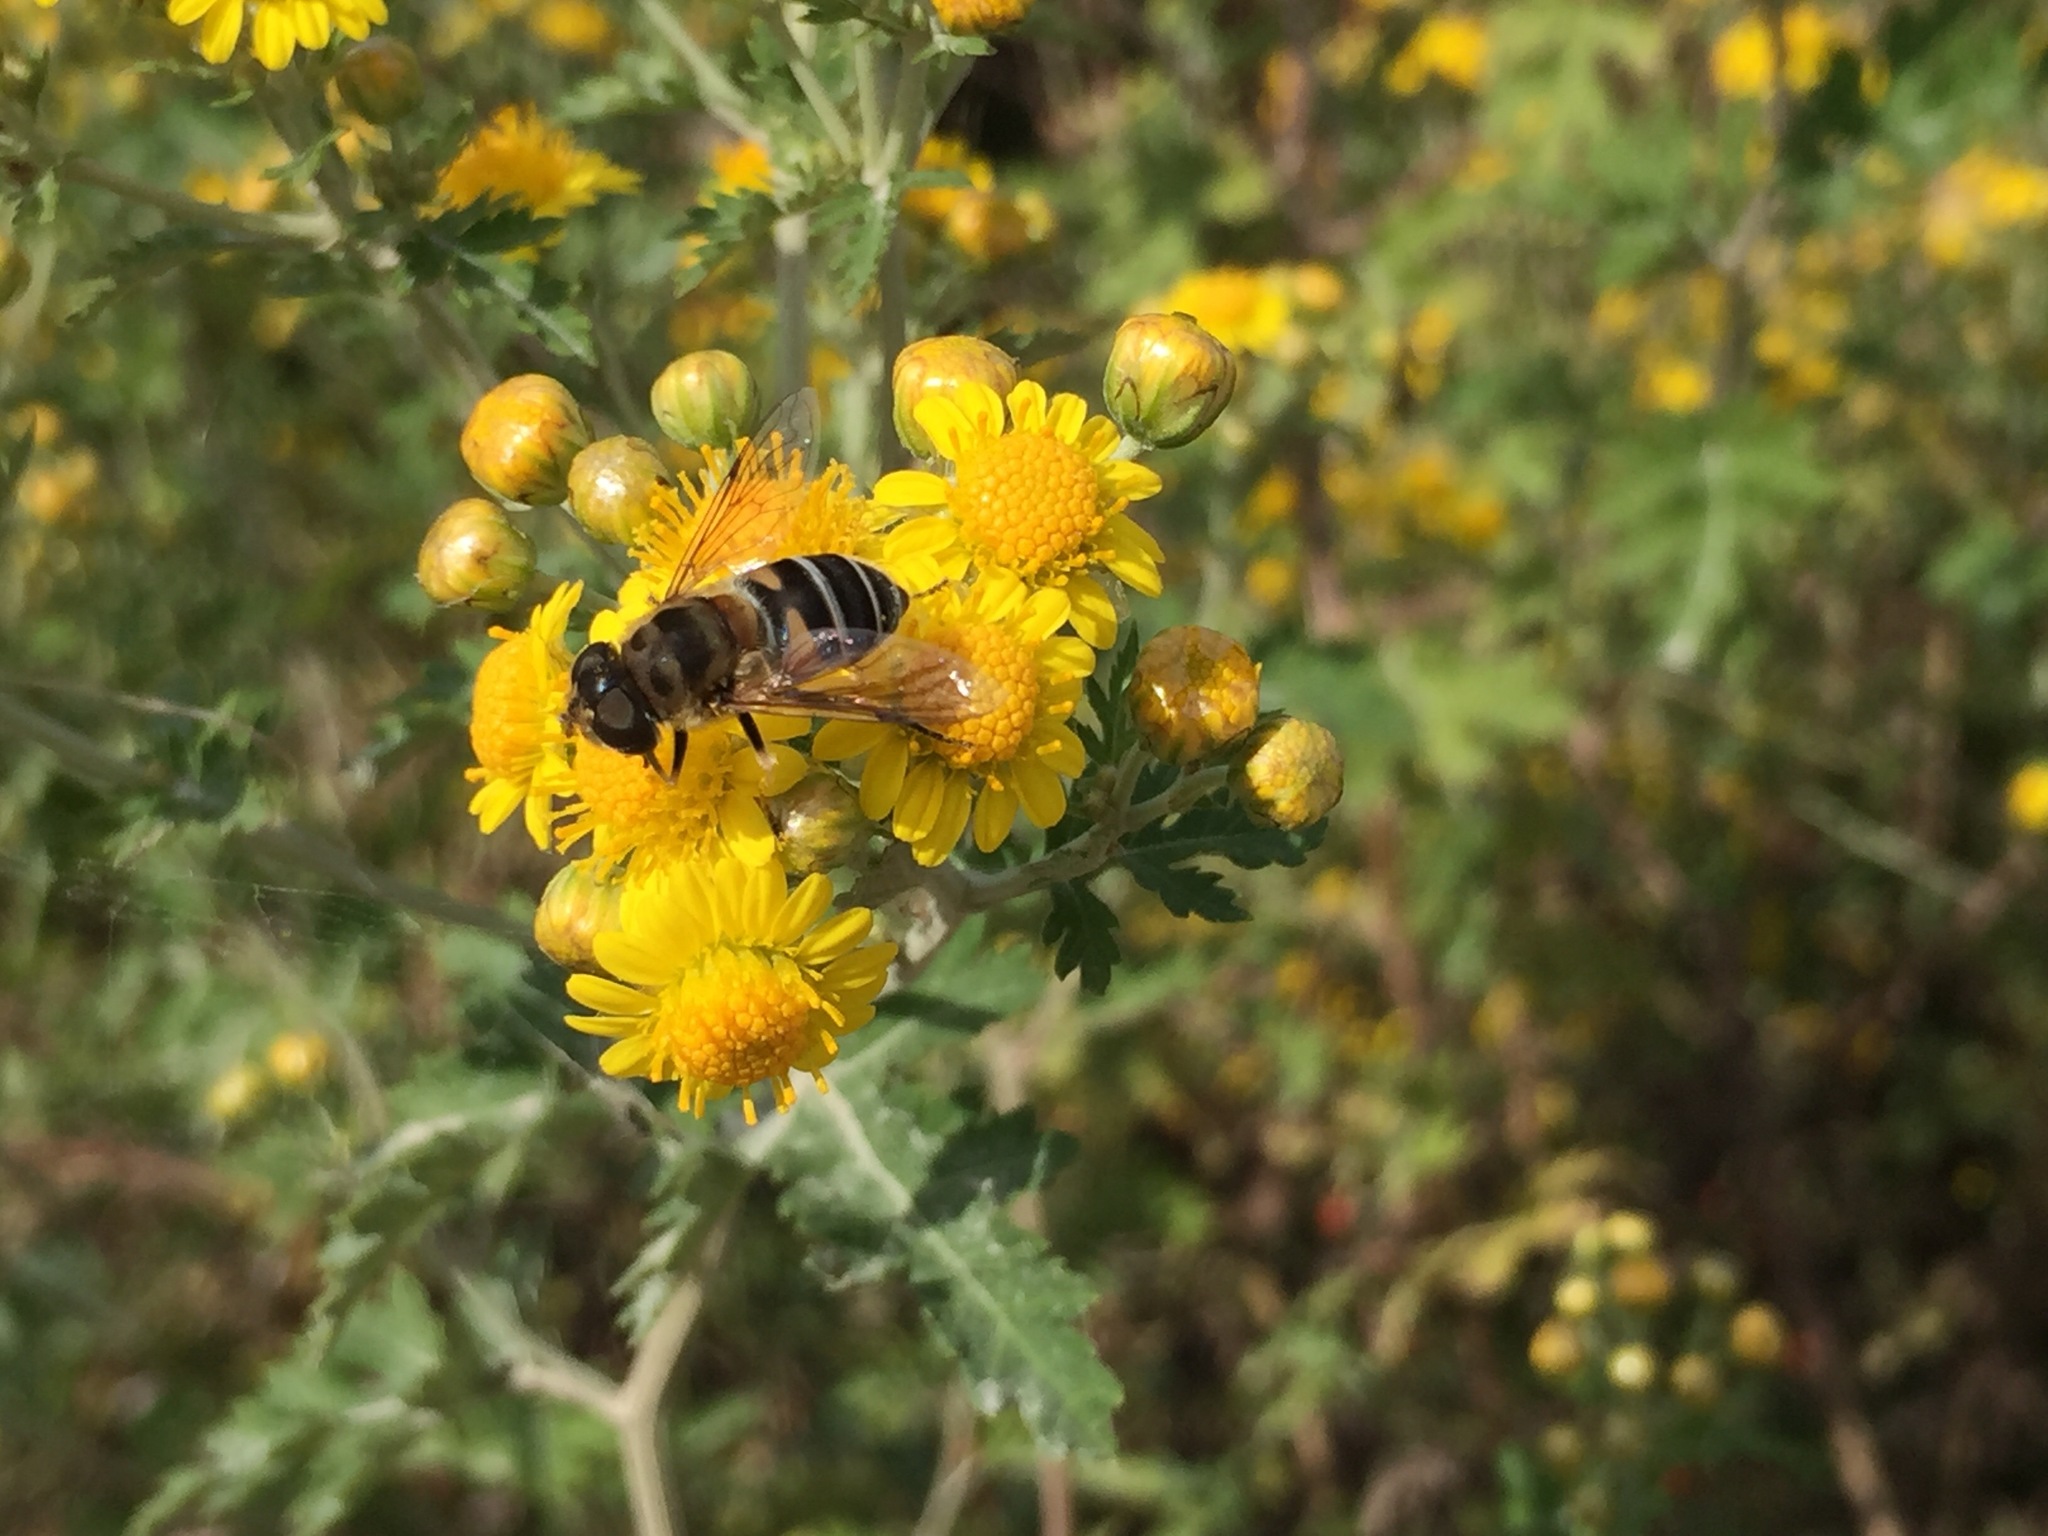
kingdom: Animalia
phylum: Arthropoda
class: Insecta
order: Diptera
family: Syrphidae
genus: Eristalis
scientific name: Eristalis cerealis
